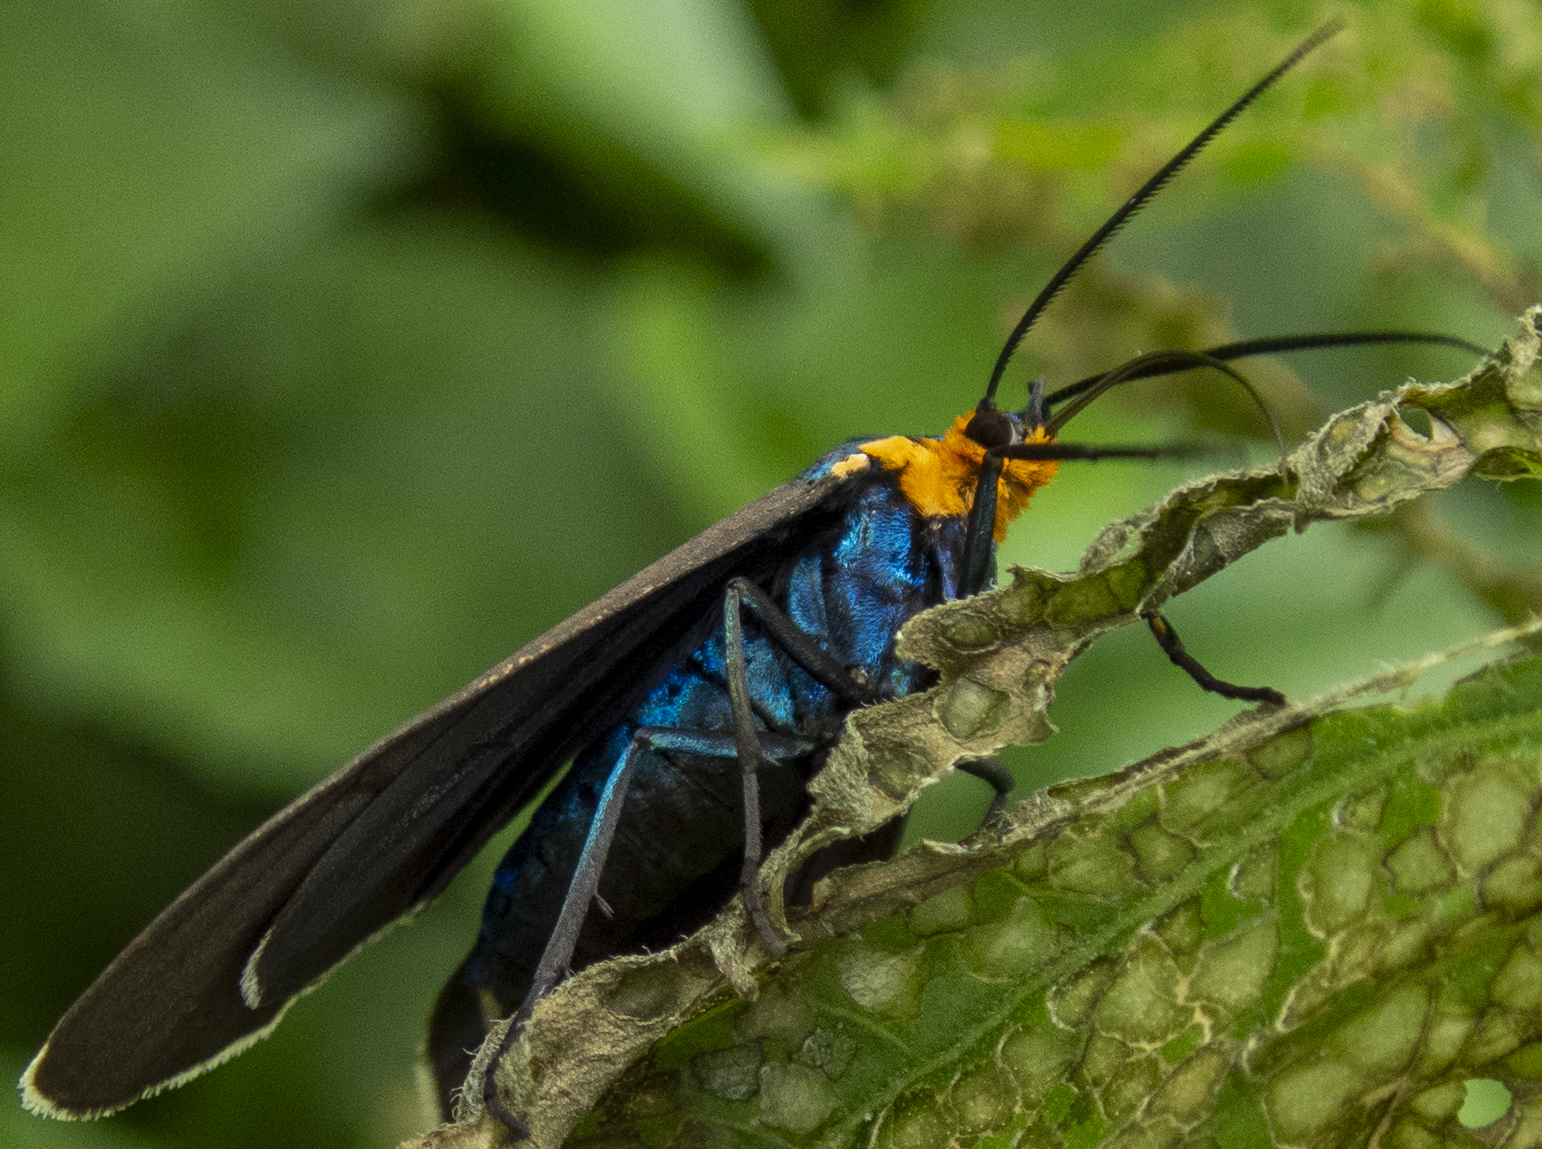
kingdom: Animalia
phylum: Arthropoda
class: Insecta
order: Lepidoptera
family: Erebidae
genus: Ctenucha
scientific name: Ctenucha virginica
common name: Virginia ctenucha moth
